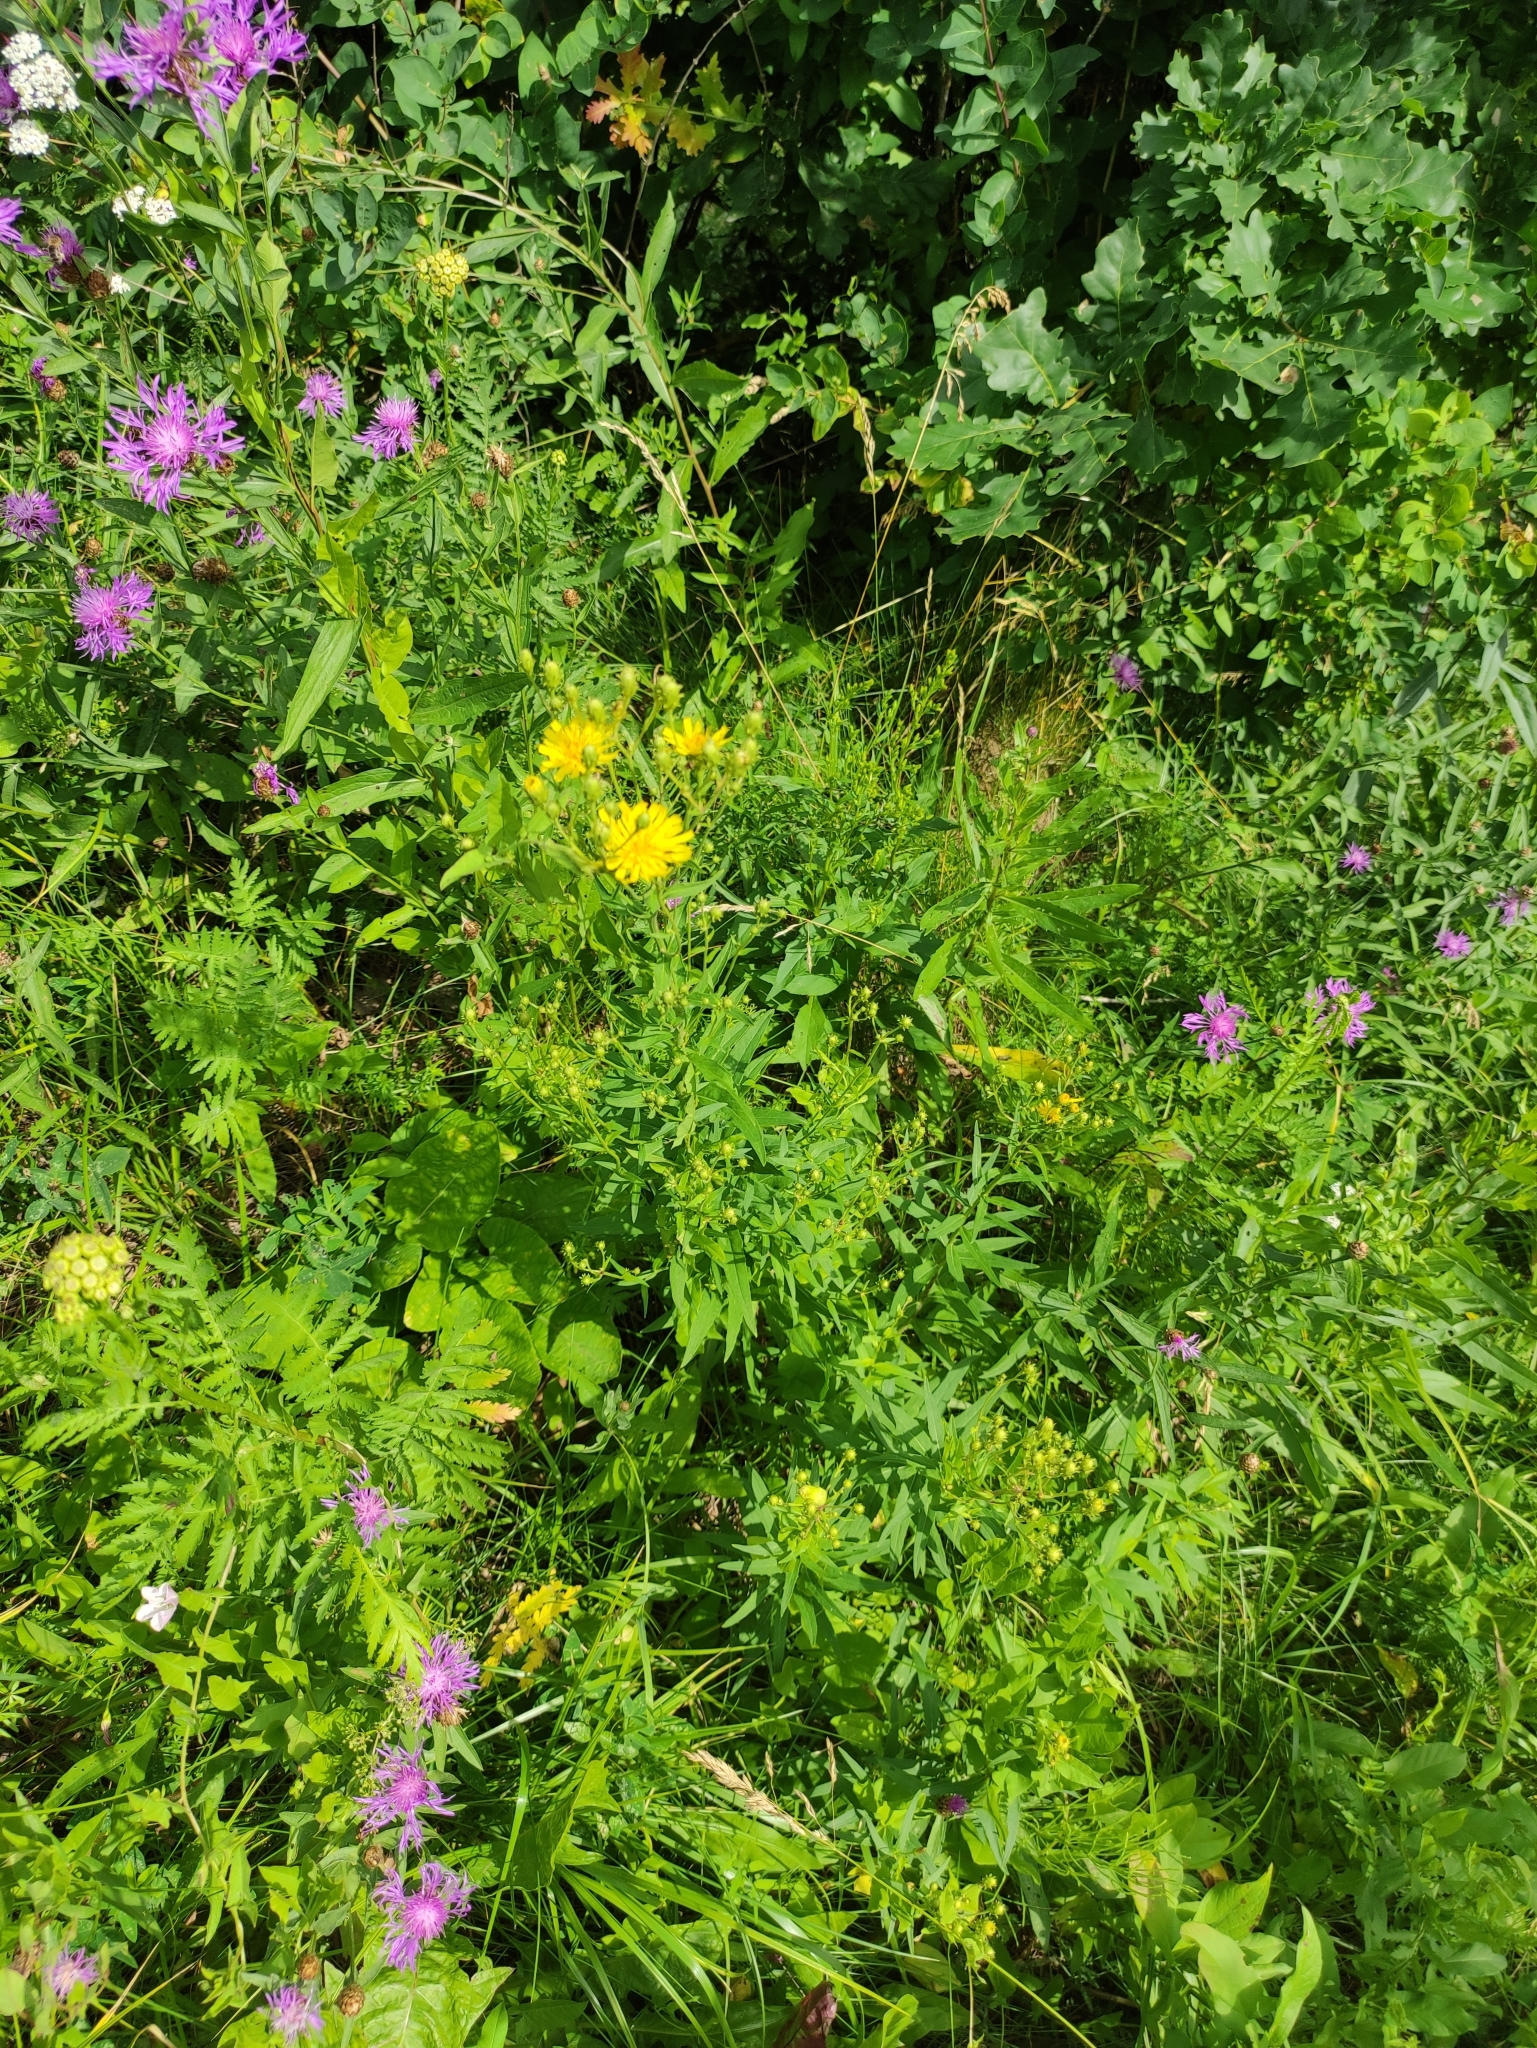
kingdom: Plantae
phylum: Tracheophyta
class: Magnoliopsida
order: Asterales
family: Asteraceae
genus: Hieracium
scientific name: Hieracium umbellatum
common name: Northern hawkweed
